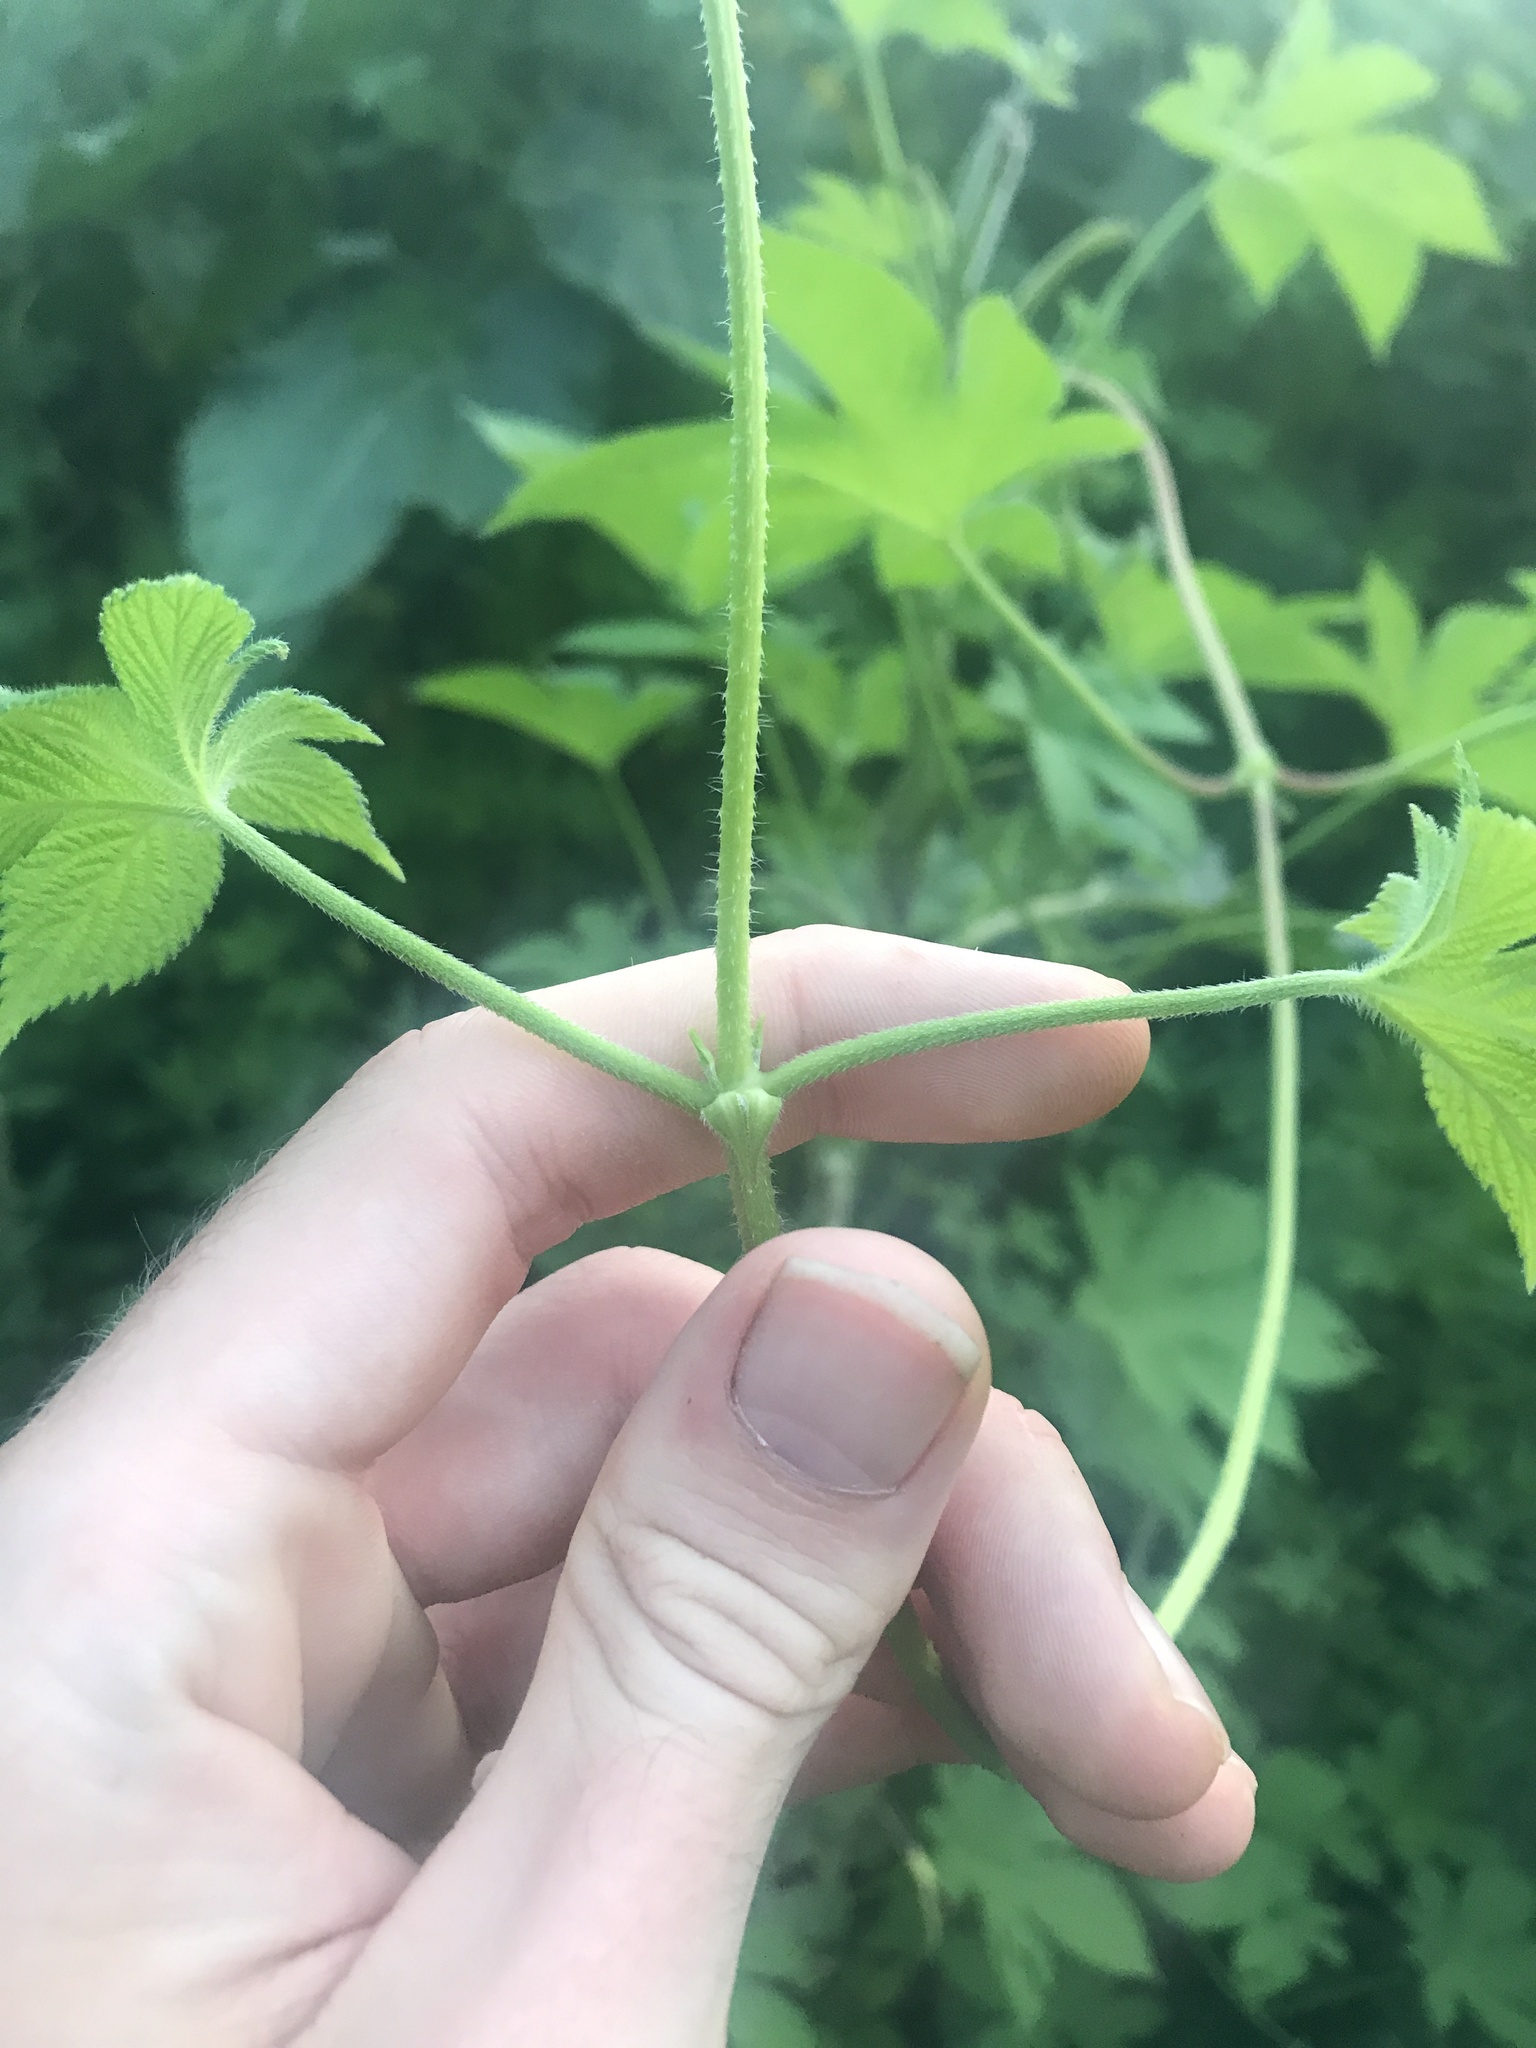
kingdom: Plantae
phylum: Tracheophyta
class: Magnoliopsida
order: Rosales
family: Cannabaceae
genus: Humulus
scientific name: Humulus scandens
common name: Japanese hop
